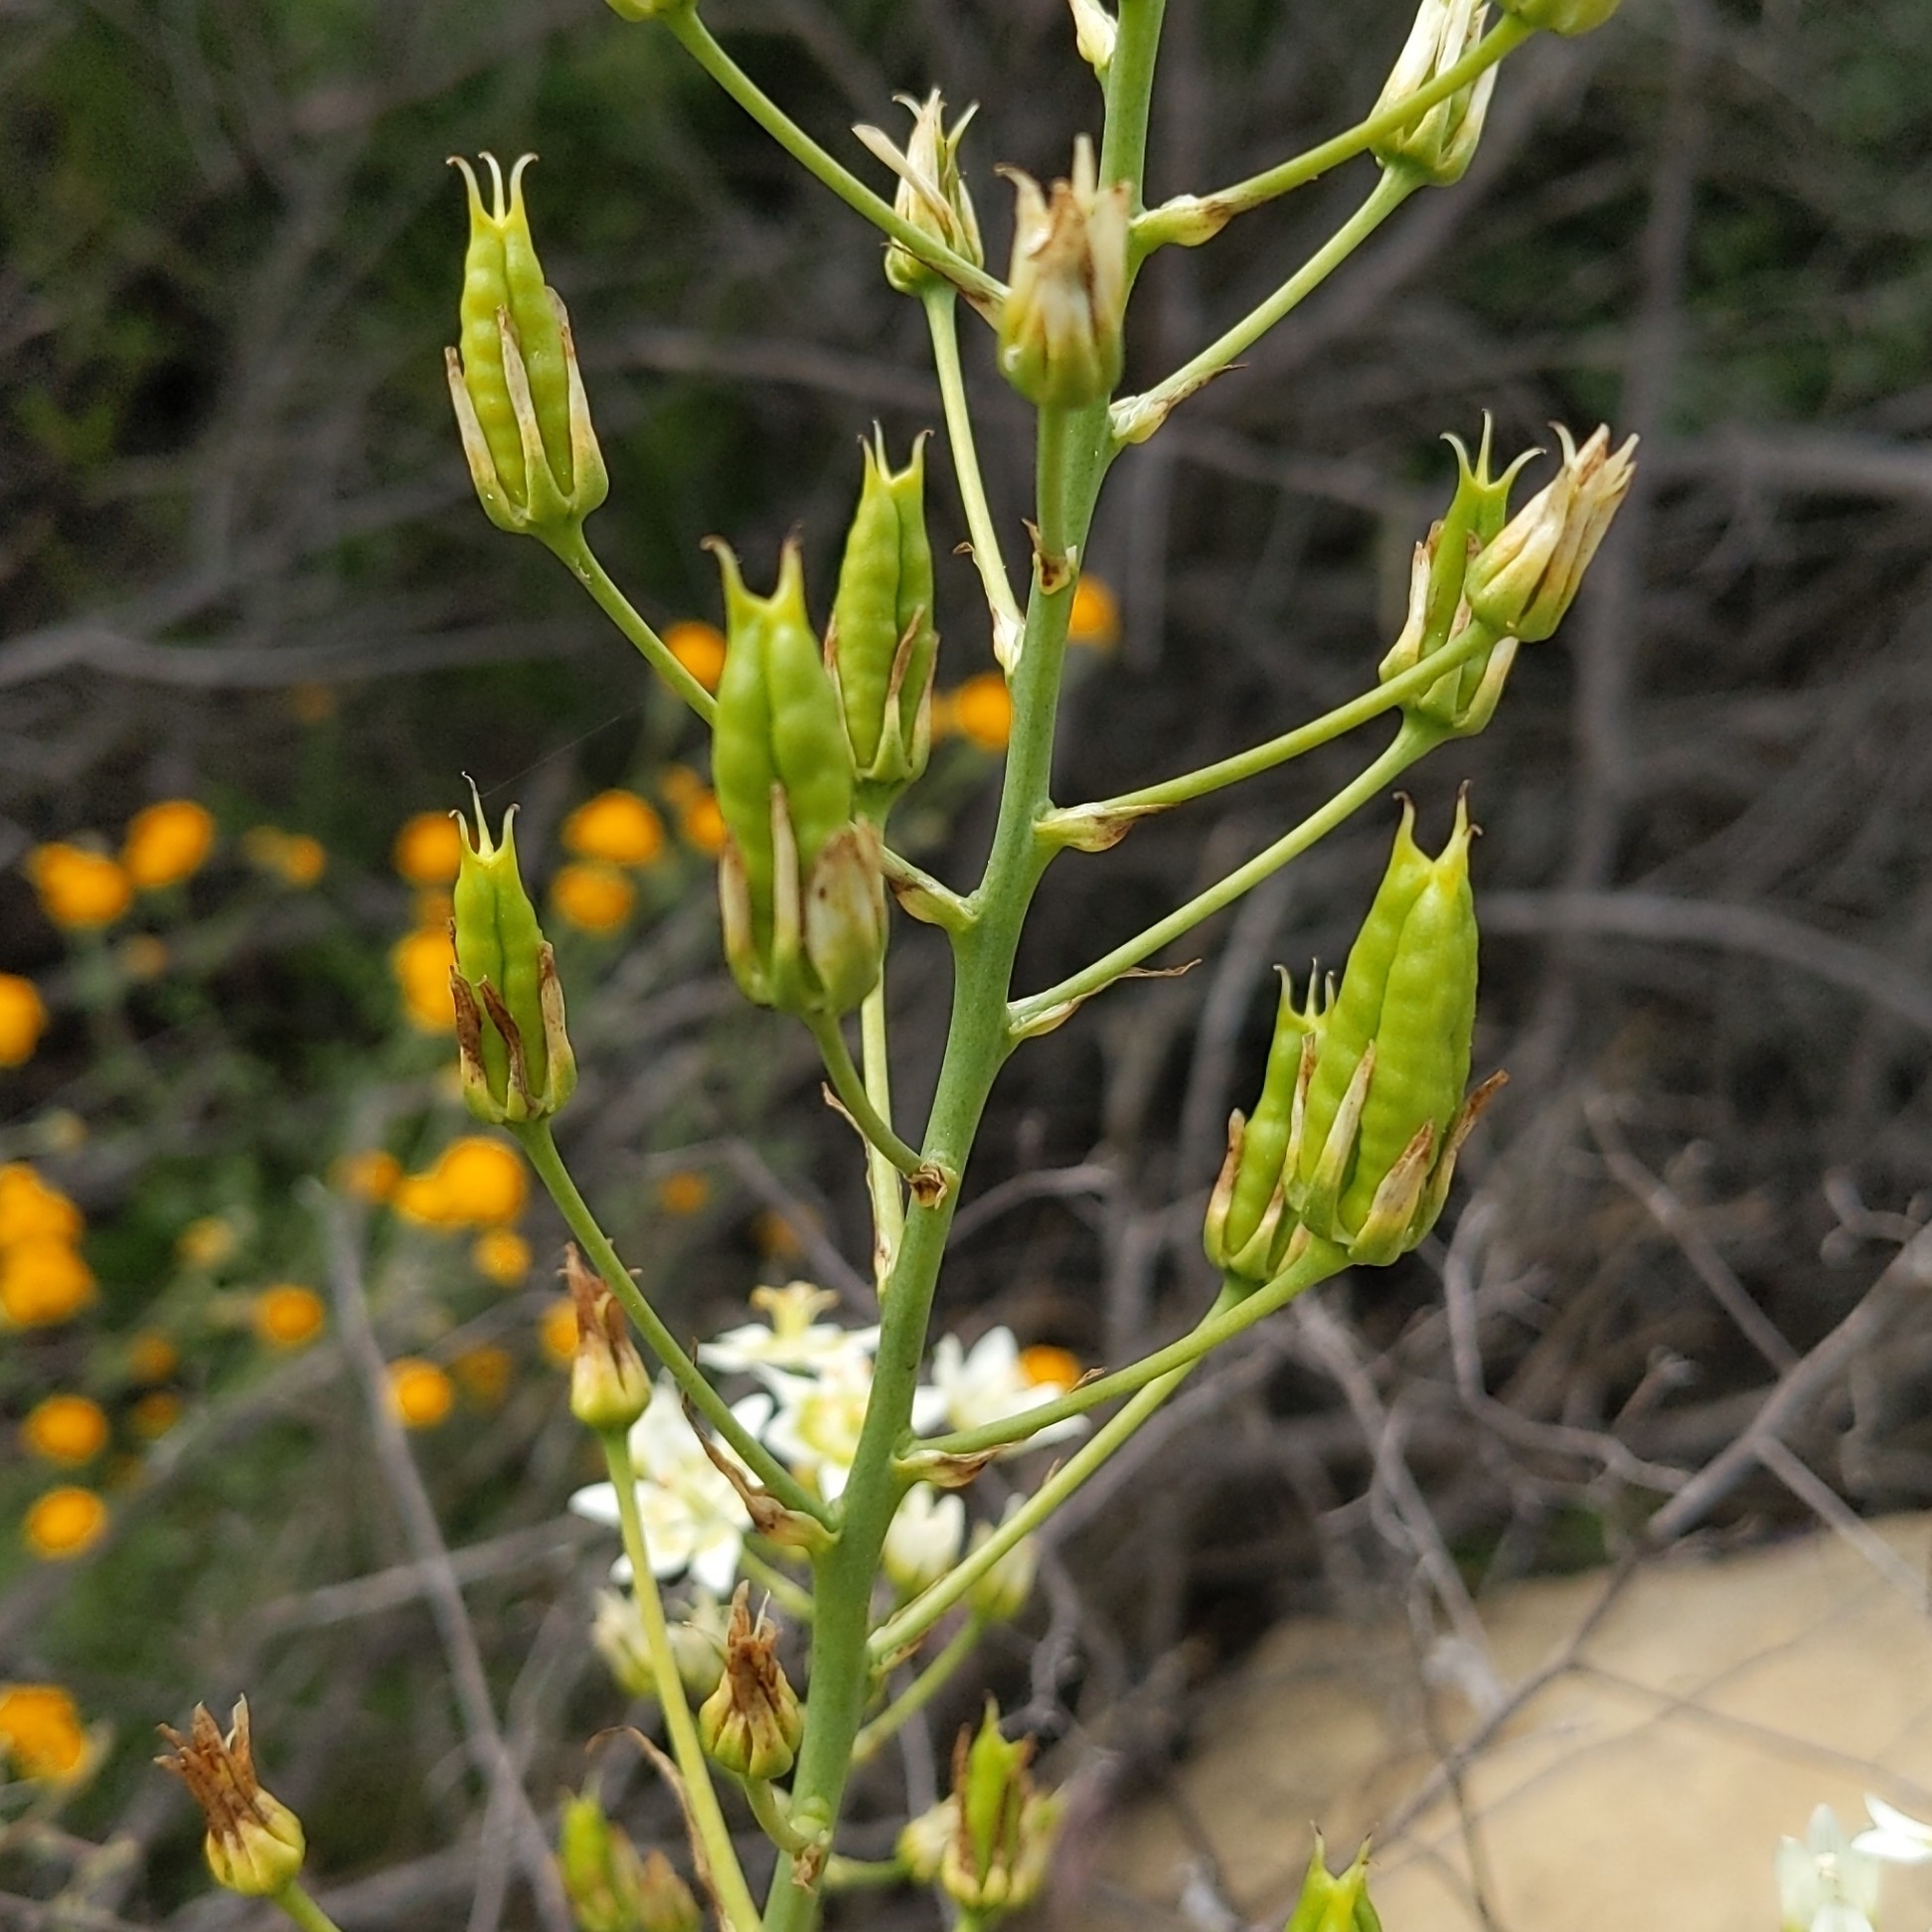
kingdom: Plantae
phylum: Tracheophyta
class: Liliopsida
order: Liliales
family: Melanthiaceae
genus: Toxicoscordion
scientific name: Toxicoscordion fremontii
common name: Fremont's death camas
